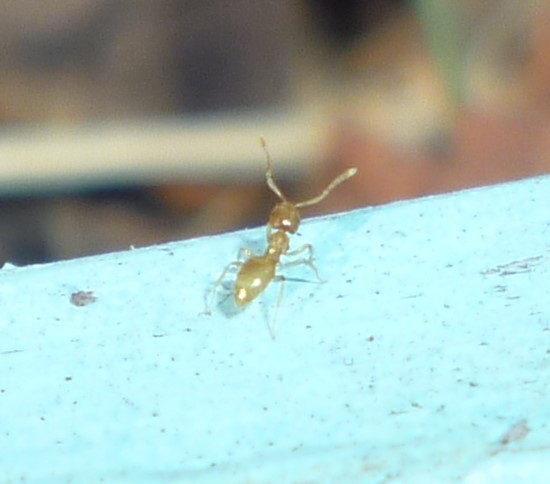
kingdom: Animalia
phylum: Arthropoda
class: Insecta
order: Hymenoptera
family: Formicidae
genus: Brachymyrmex
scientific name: Brachymyrmex depilis
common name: Hairless rover ant
